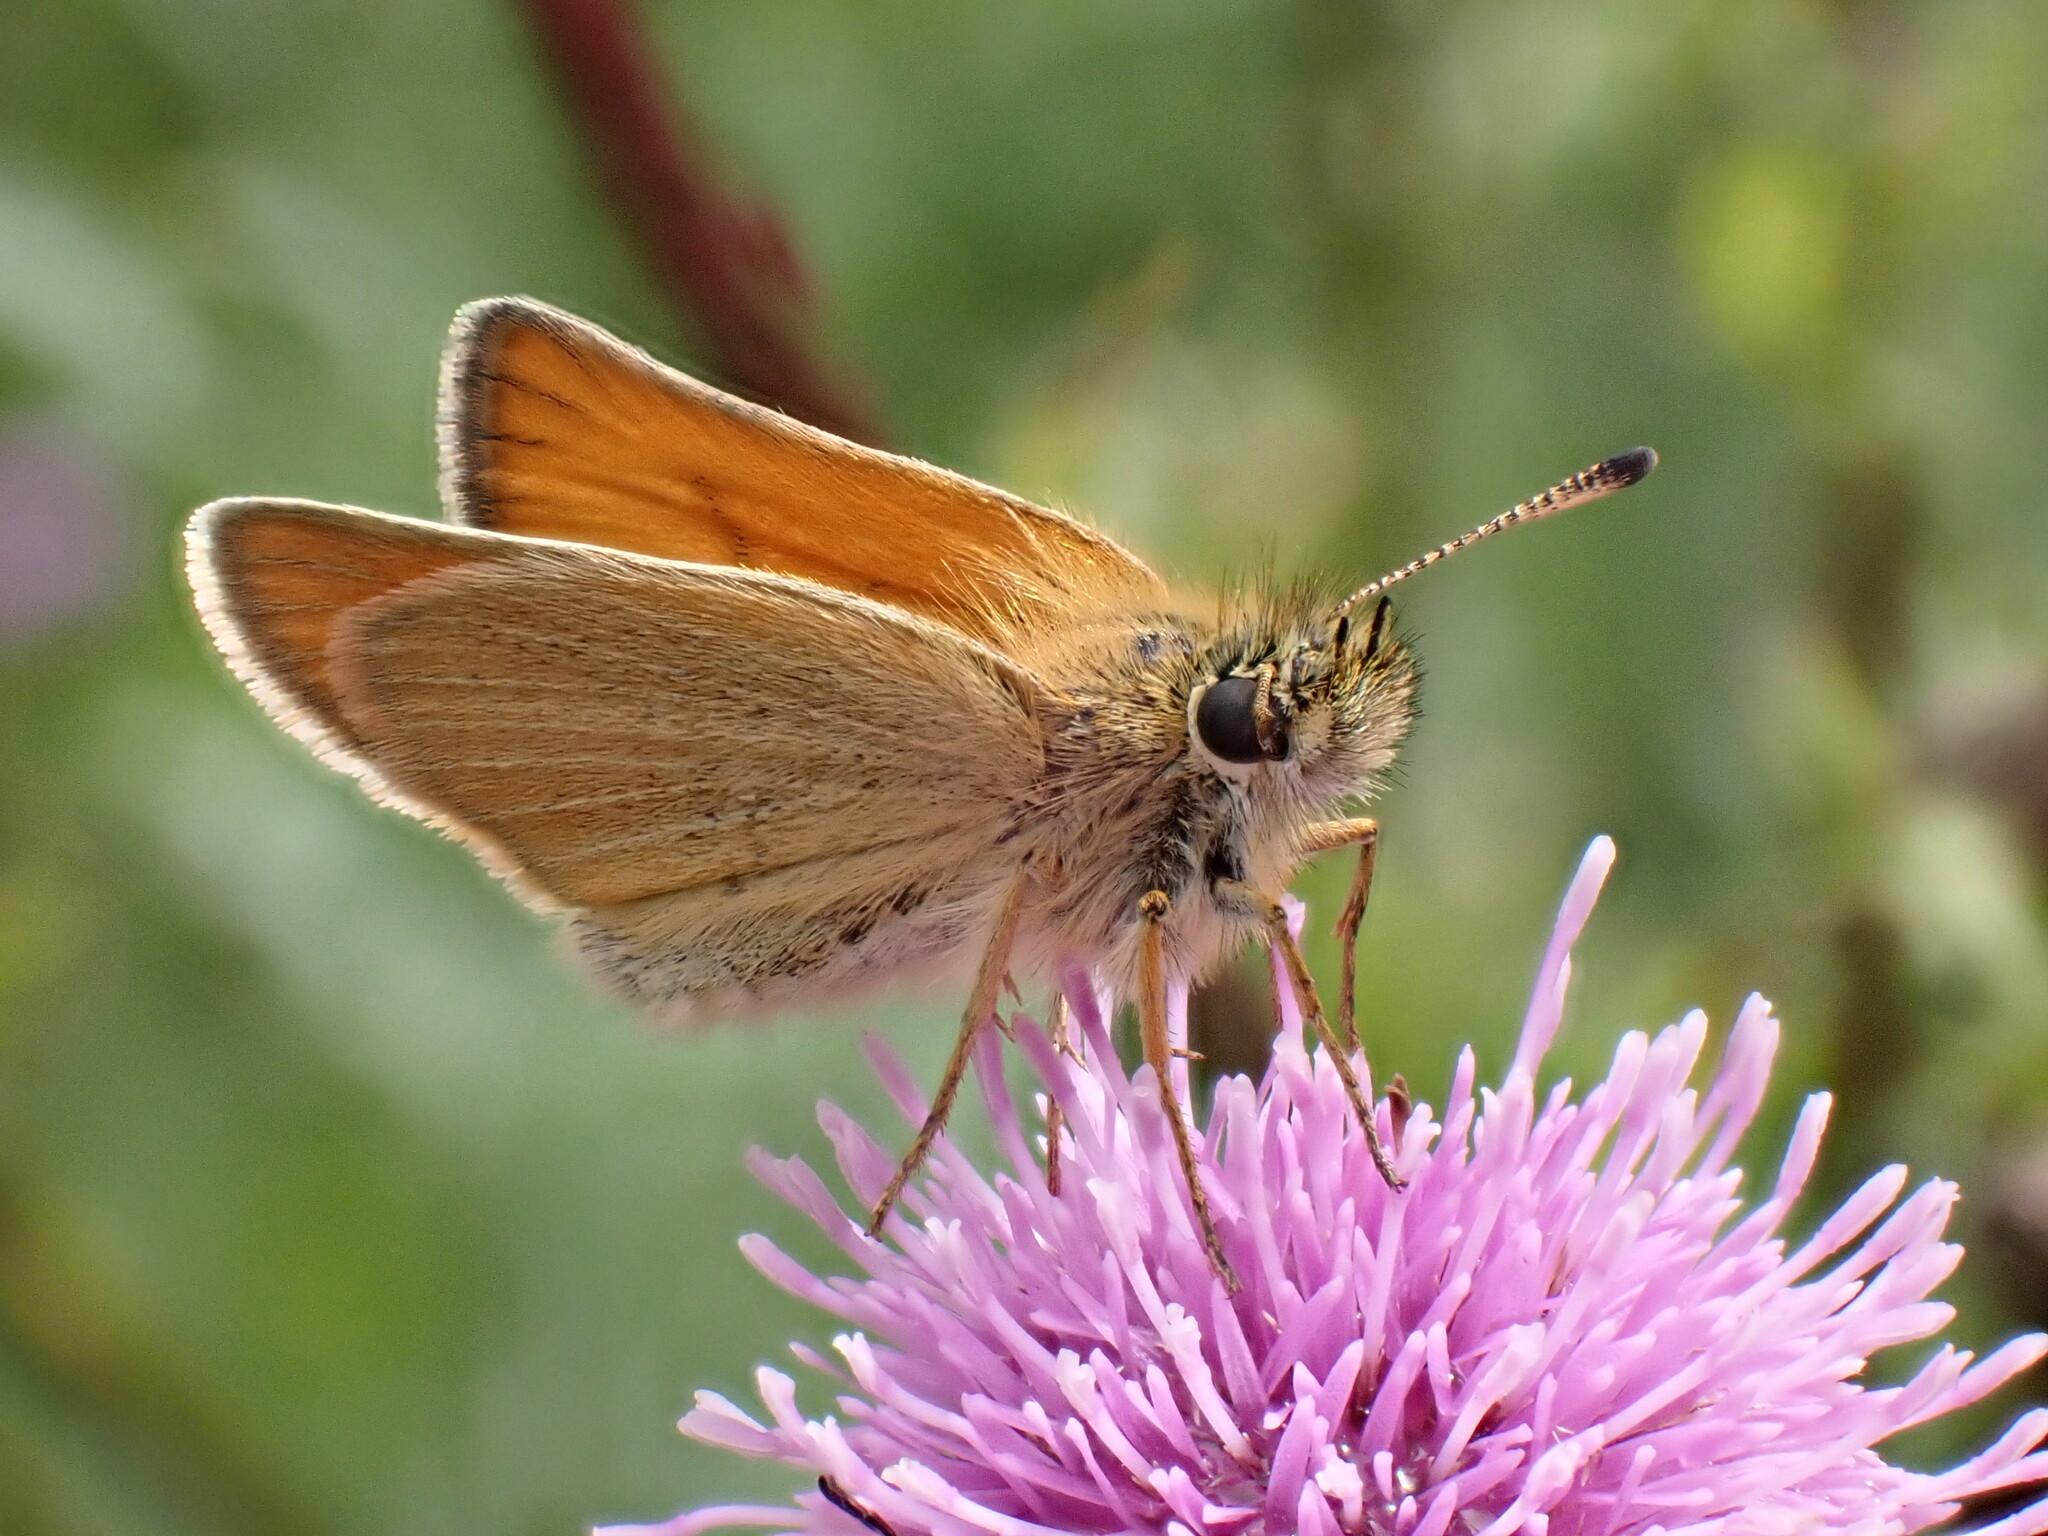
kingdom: Animalia
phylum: Arthropoda
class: Insecta
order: Lepidoptera
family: Hesperiidae
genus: Thymelicus
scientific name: Thymelicus lineola
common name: Essex skipper
